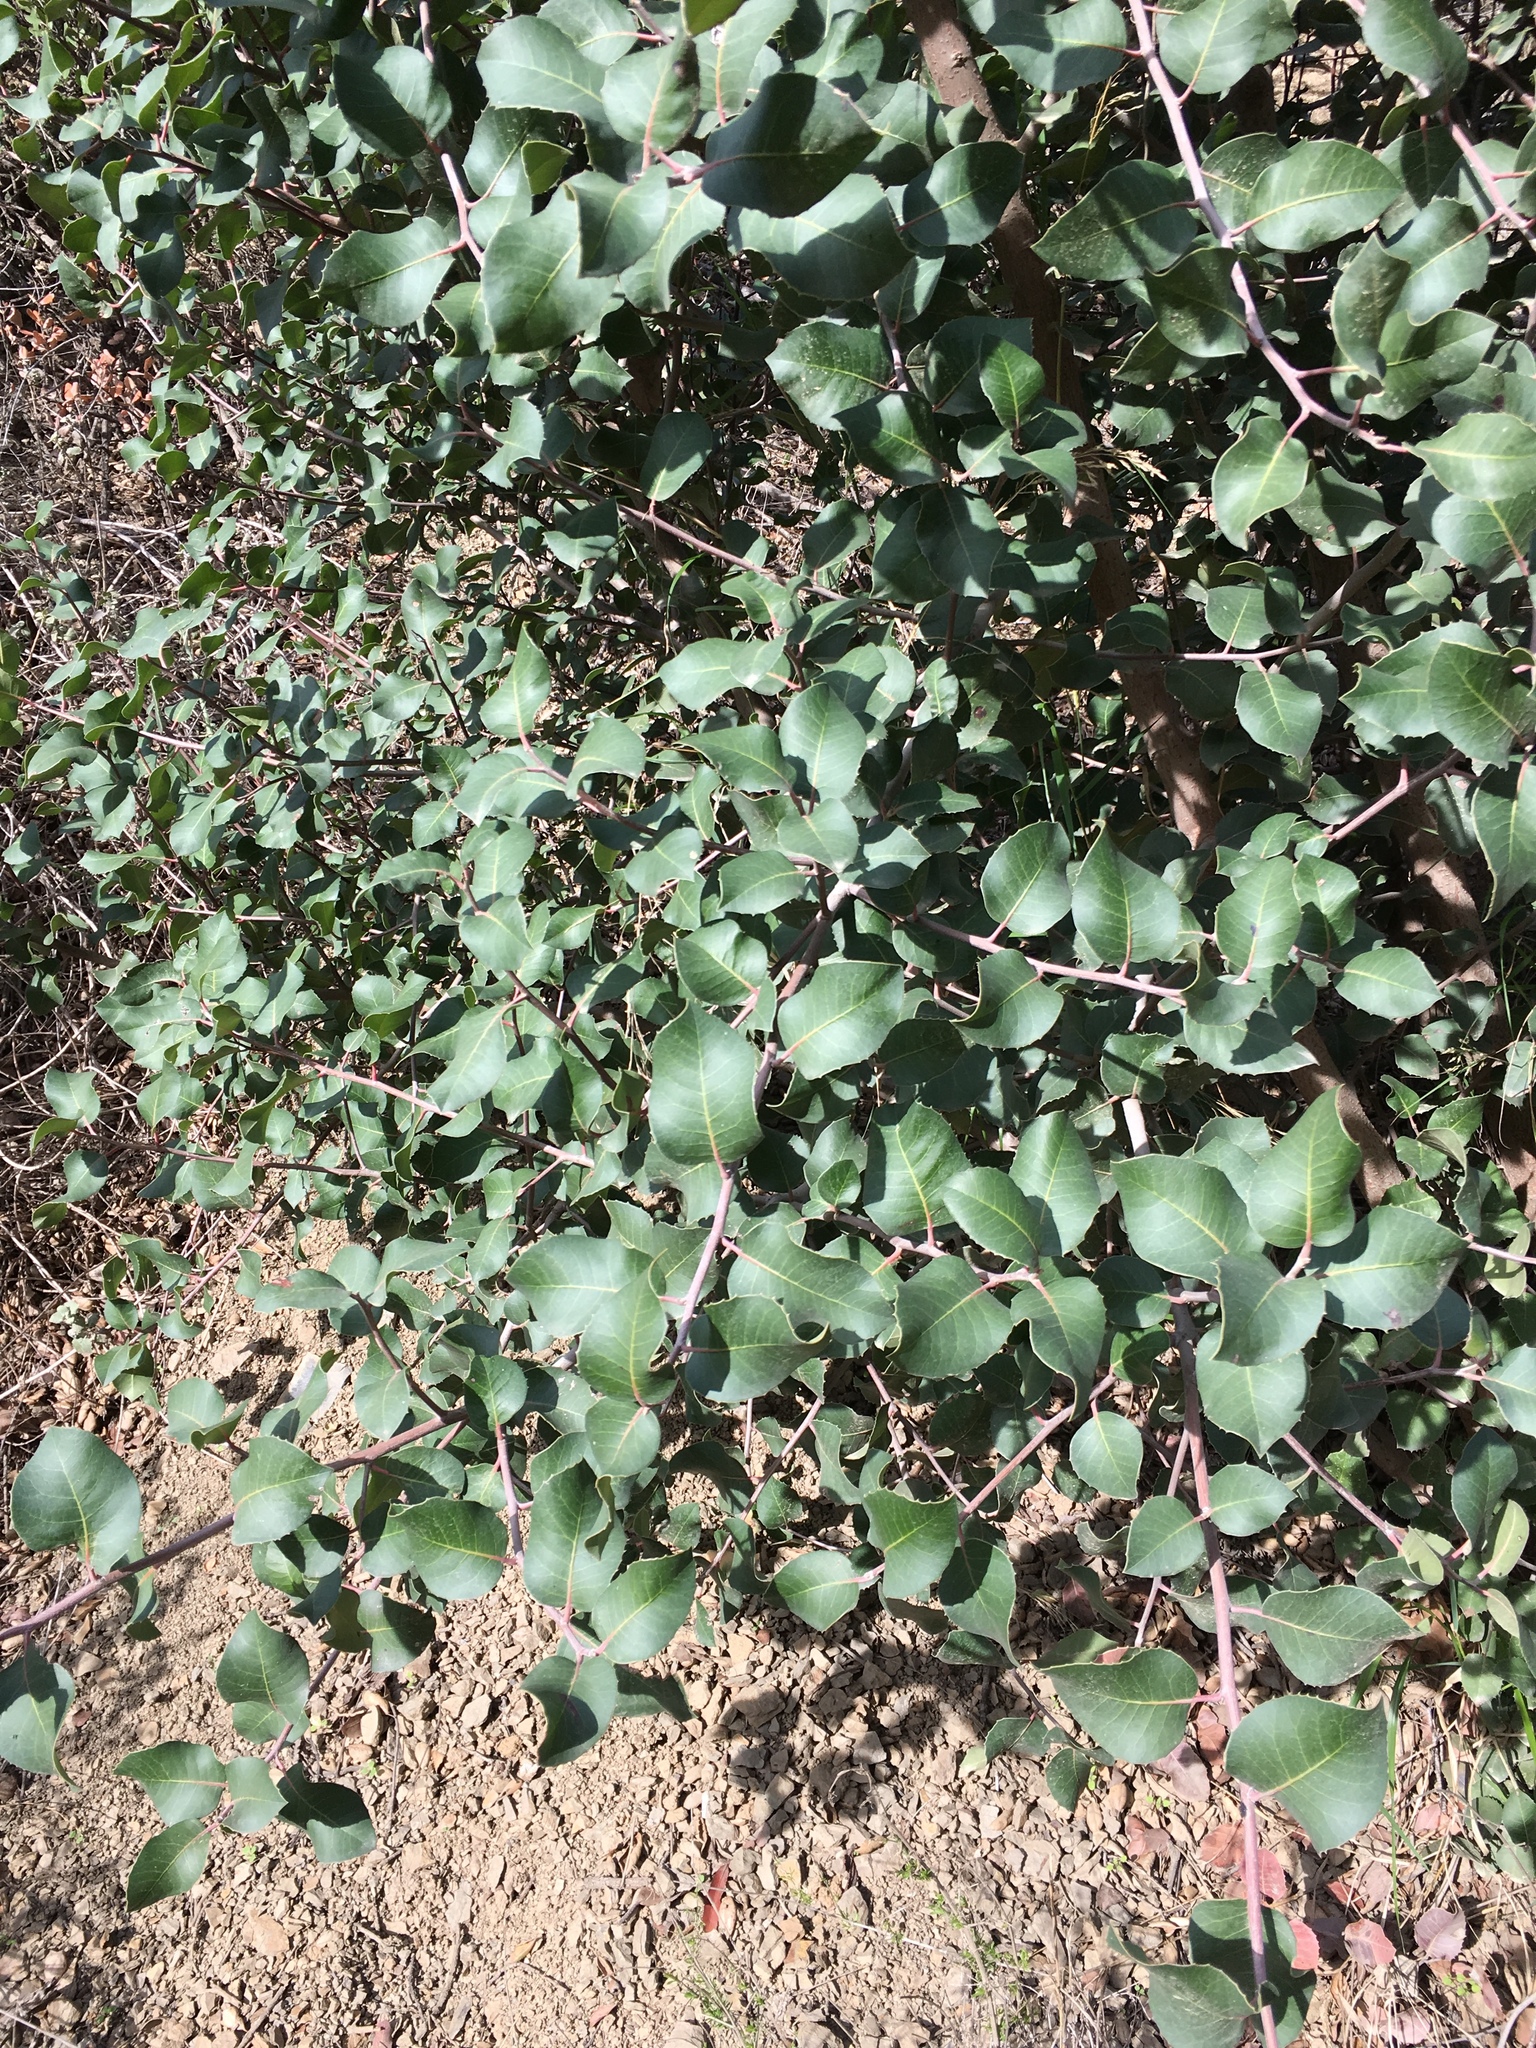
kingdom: Plantae
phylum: Tracheophyta
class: Magnoliopsida
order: Sapindales
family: Anacardiaceae
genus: Rhus
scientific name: Rhus
